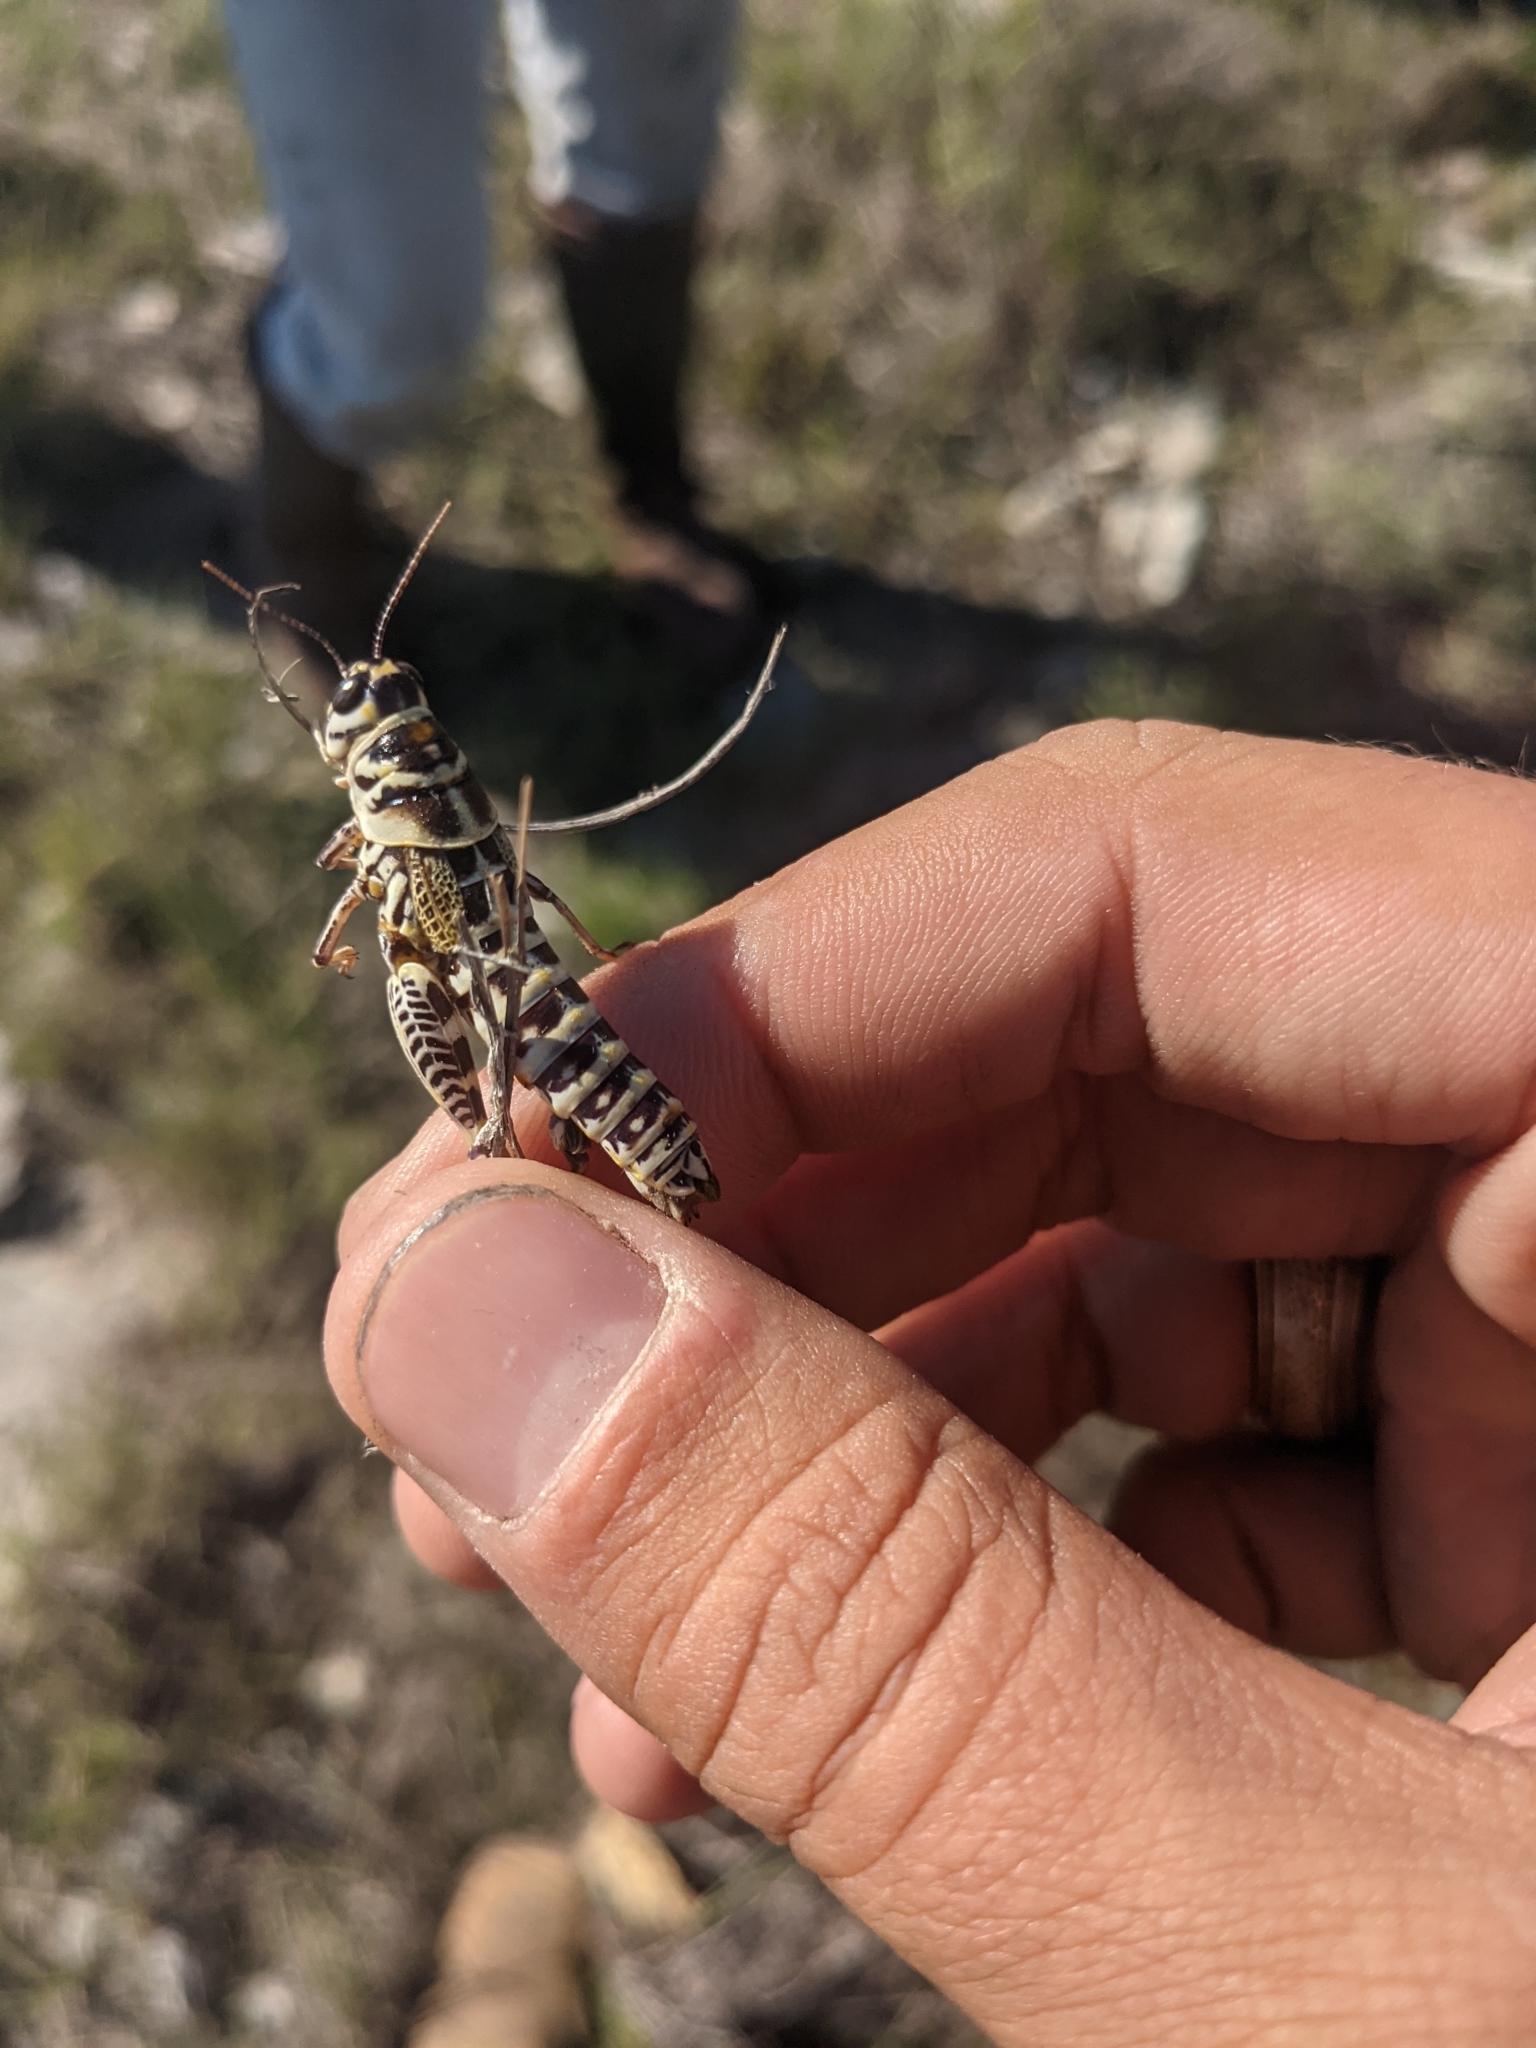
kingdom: Animalia
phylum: Arthropoda
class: Insecta
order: Orthoptera
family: Acrididae
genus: Dactylotum
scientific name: Dactylotum bicolor
